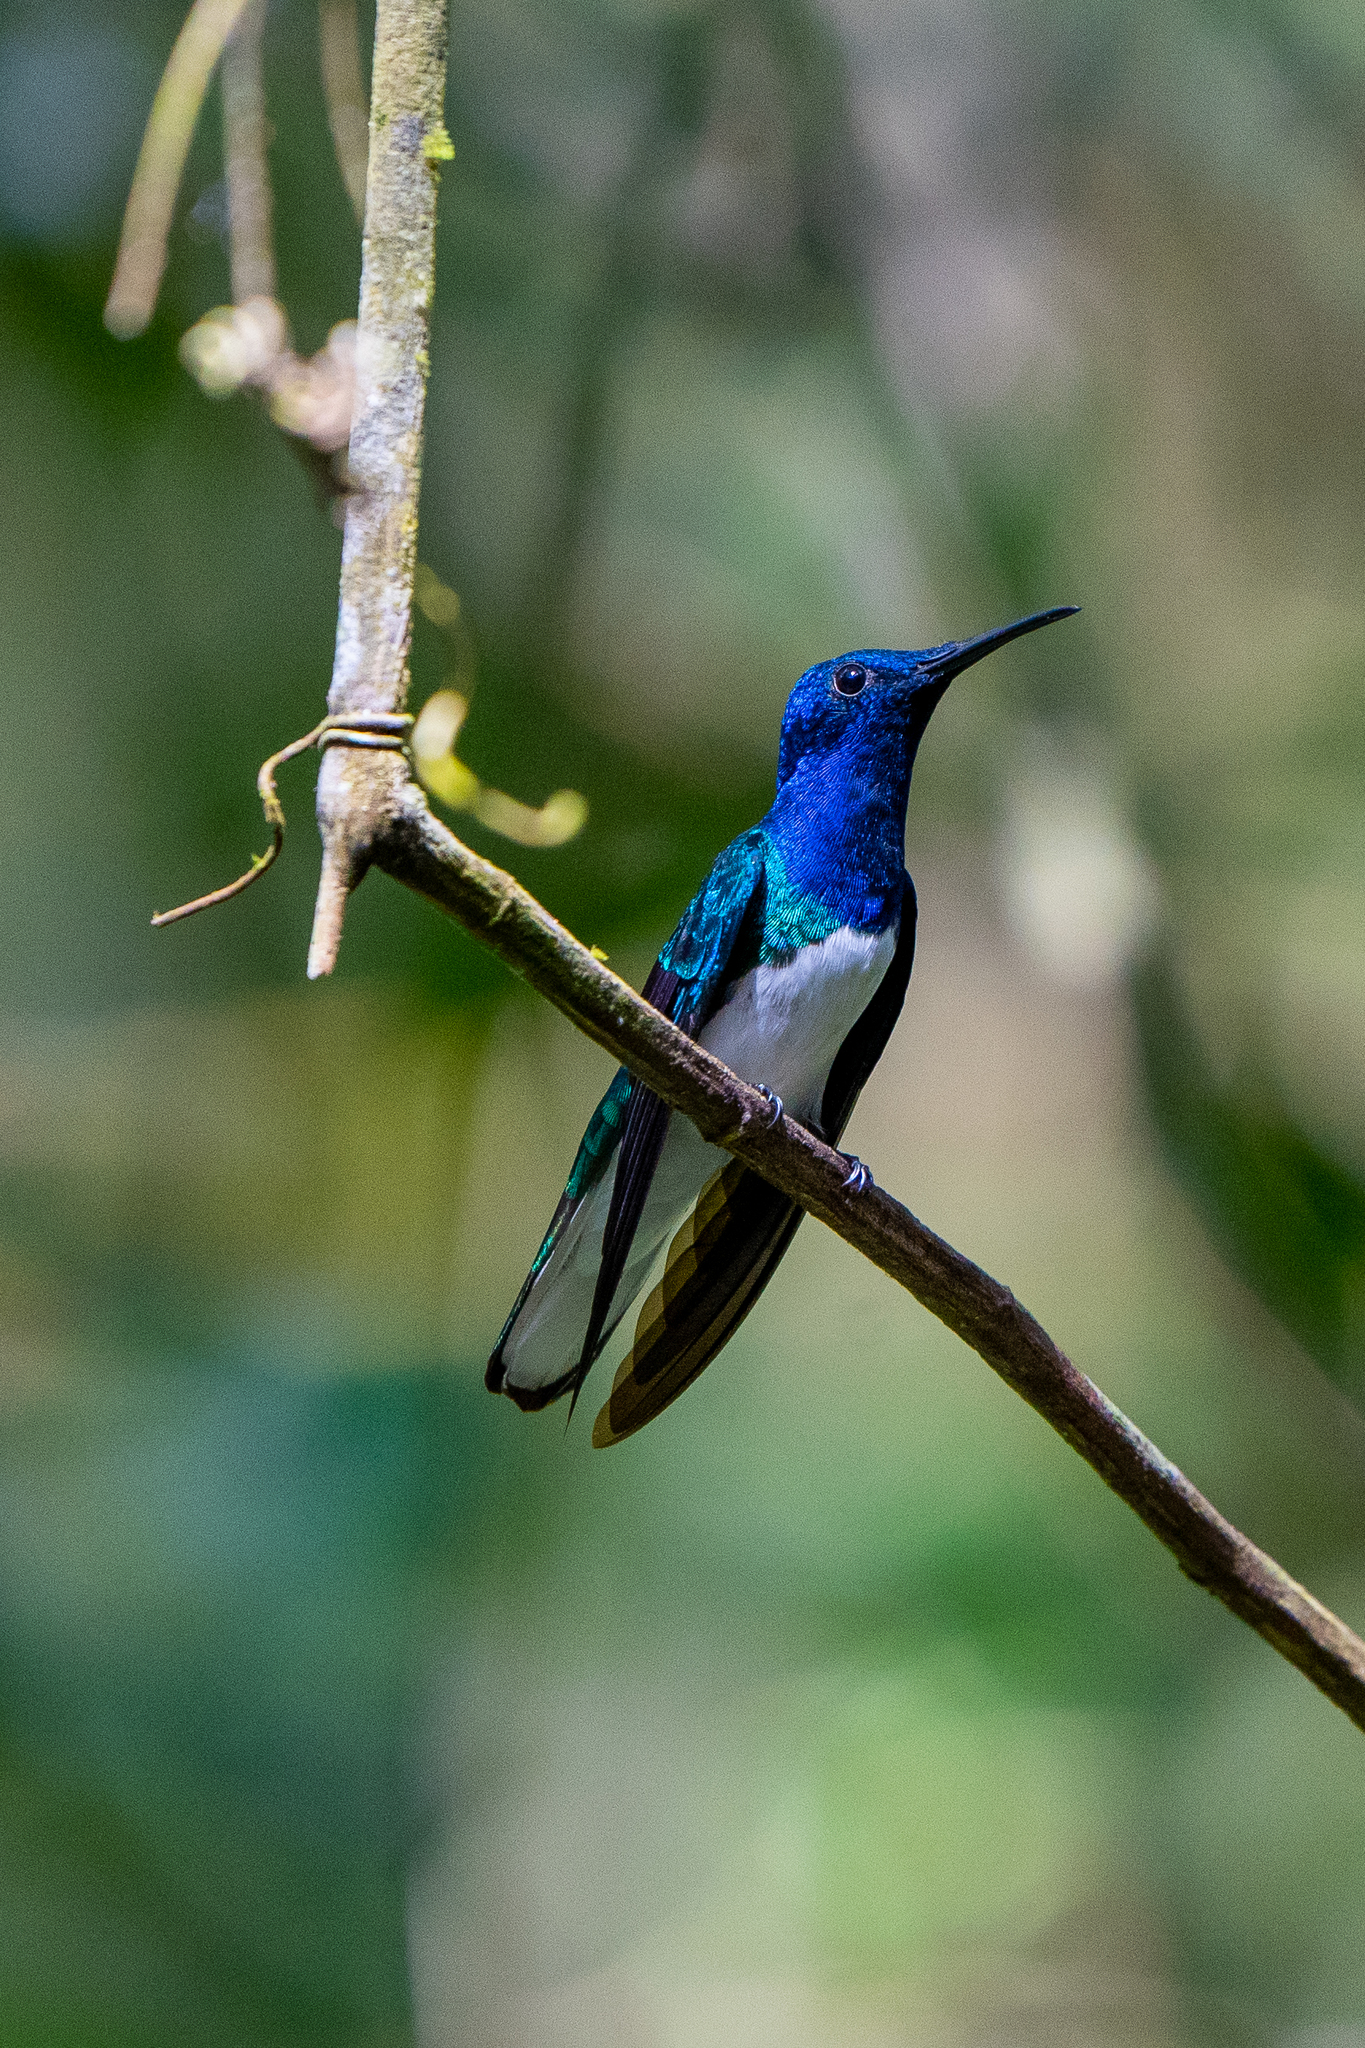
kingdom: Animalia
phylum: Chordata
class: Aves
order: Apodiformes
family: Trochilidae
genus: Florisuga
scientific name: Florisuga mellivora
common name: White-necked jacobin
